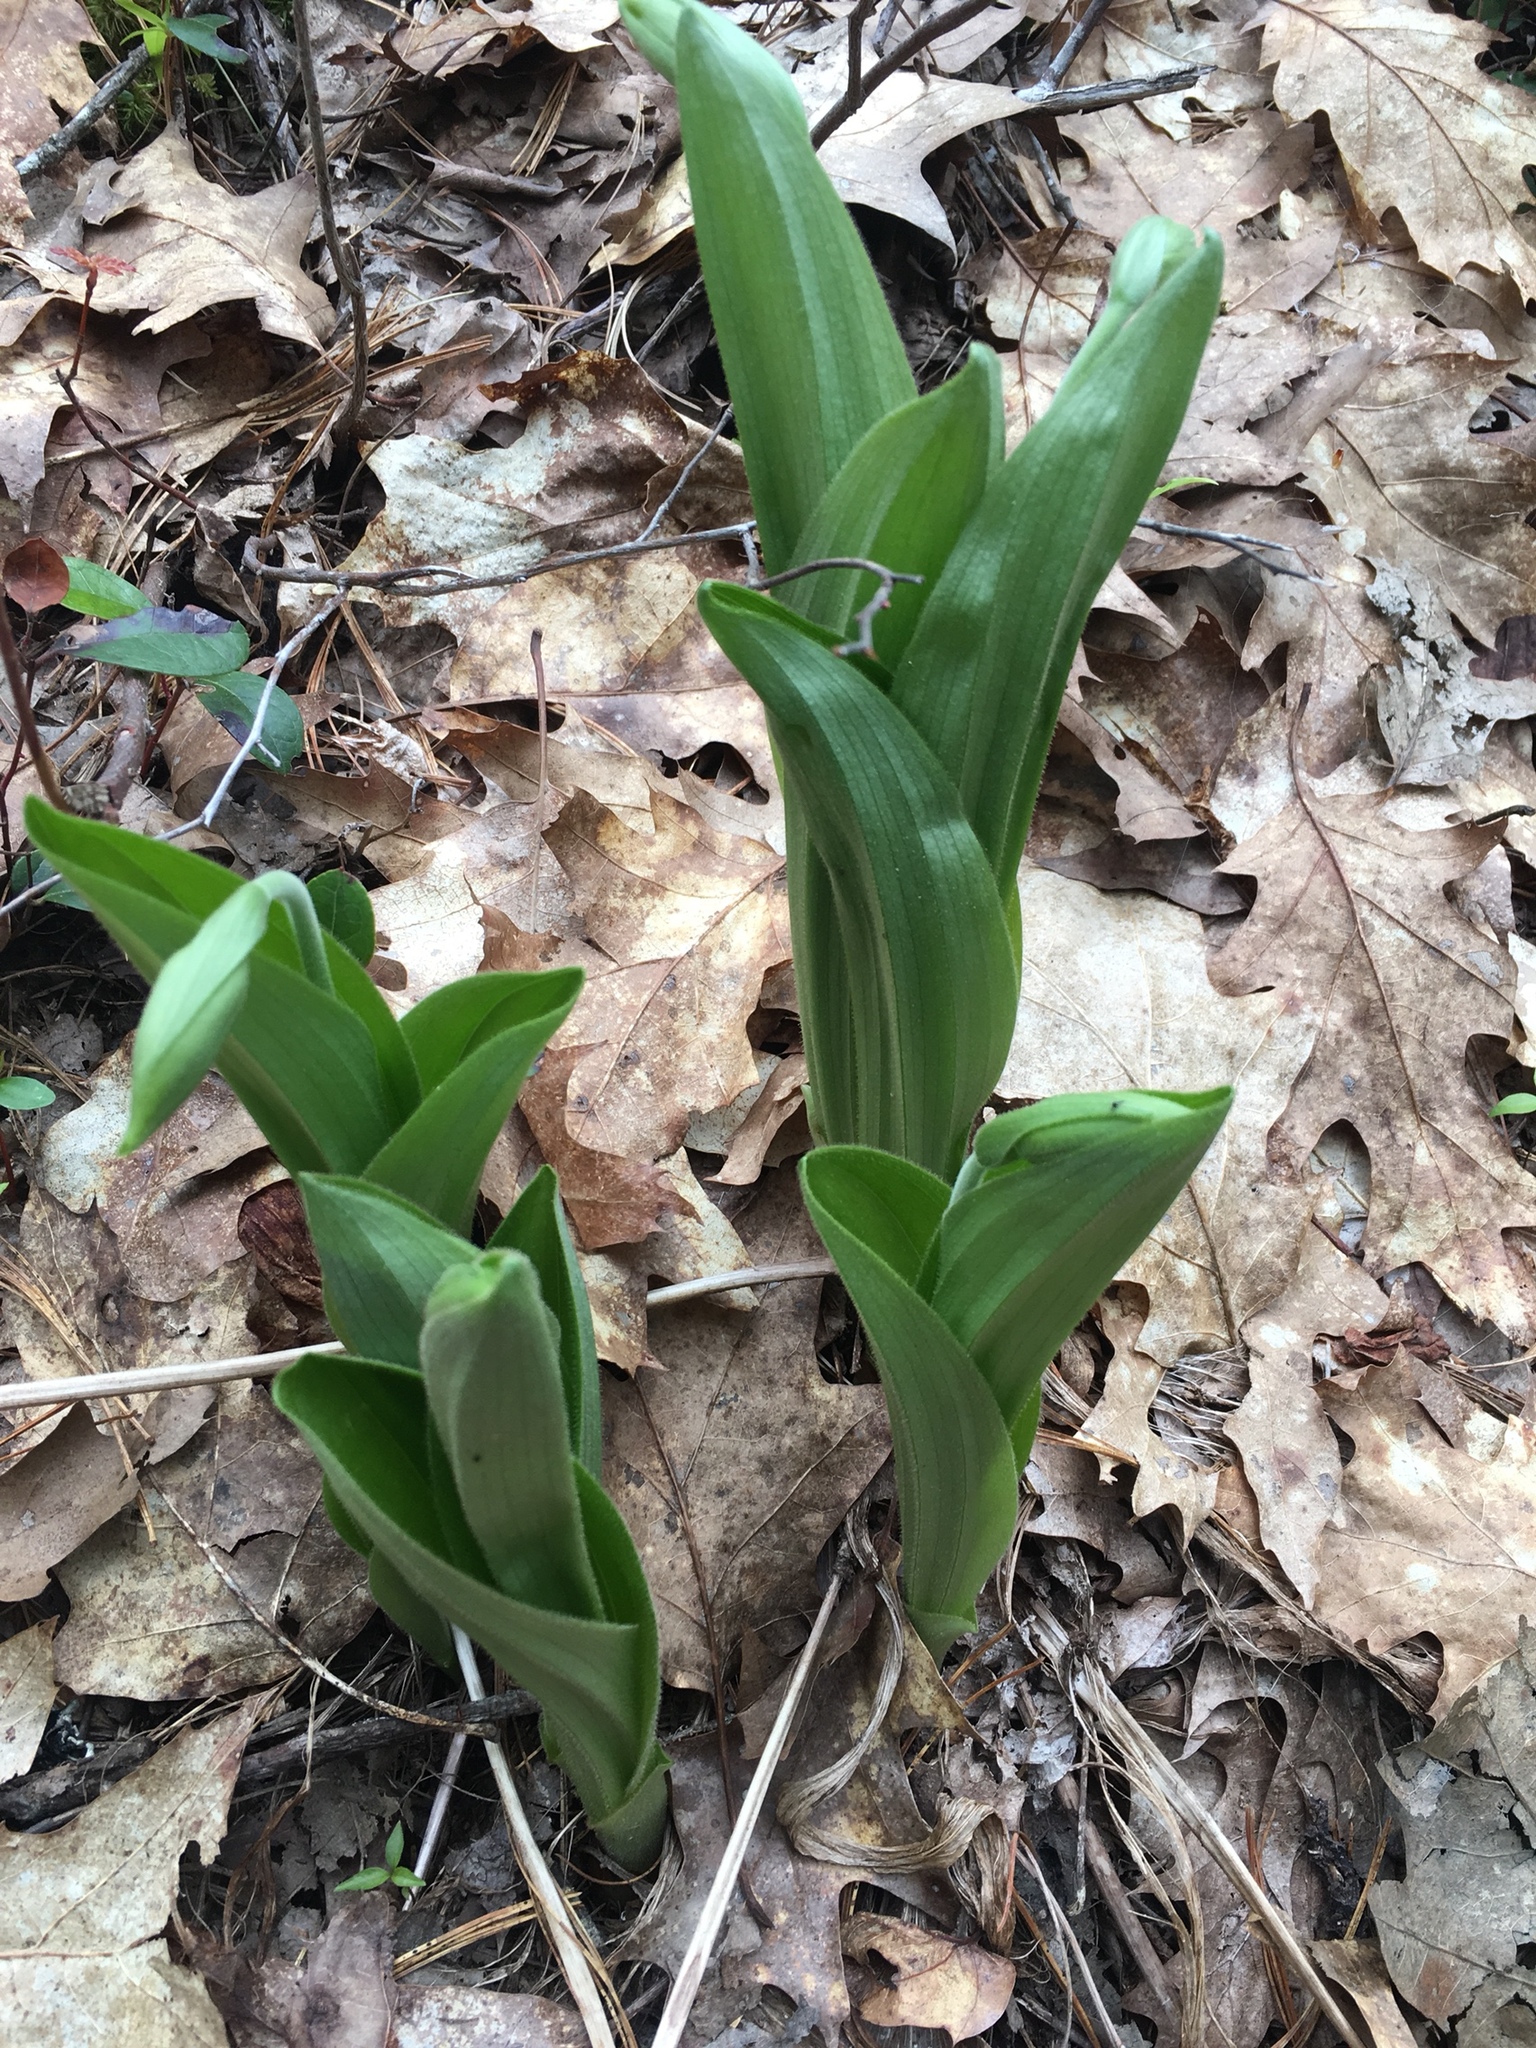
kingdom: Plantae
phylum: Tracheophyta
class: Liliopsida
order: Liliales
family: Liliaceae
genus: Clintonia
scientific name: Clintonia borealis
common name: Yellow clintonia
